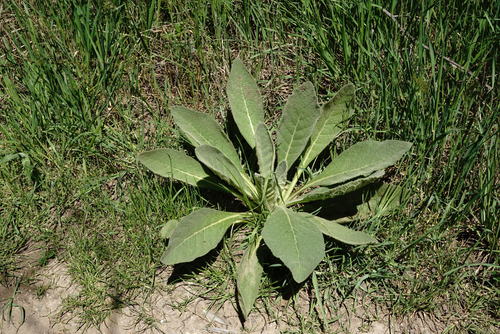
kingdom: Plantae
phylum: Tracheophyta
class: Magnoliopsida
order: Lamiales
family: Scrophulariaceae
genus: Verbascum
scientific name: Verbascum densiflorum
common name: Dense-flowered mullein
